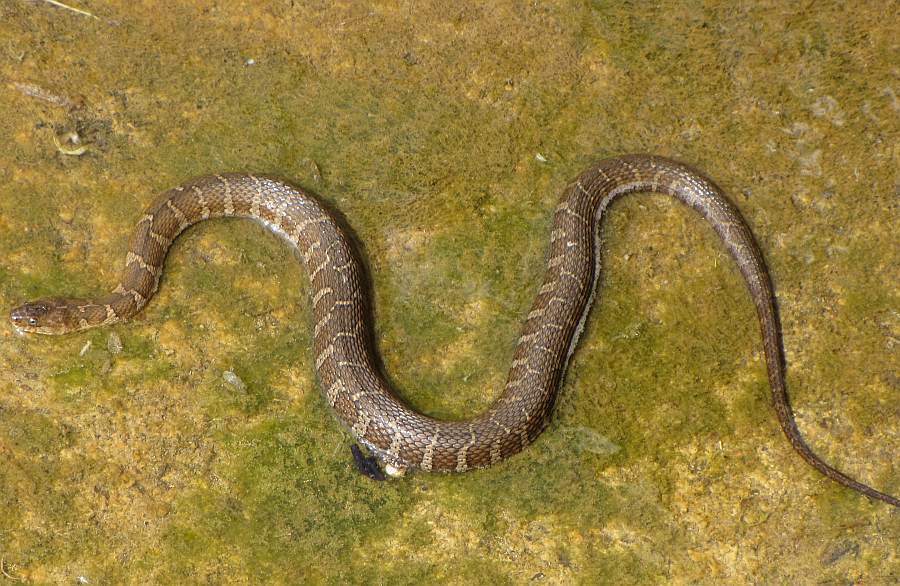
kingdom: Animalia
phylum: Chordata
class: Squamata
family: Colubridae
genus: Nerodia
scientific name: Nerodia sipedon
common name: Northern water snake
